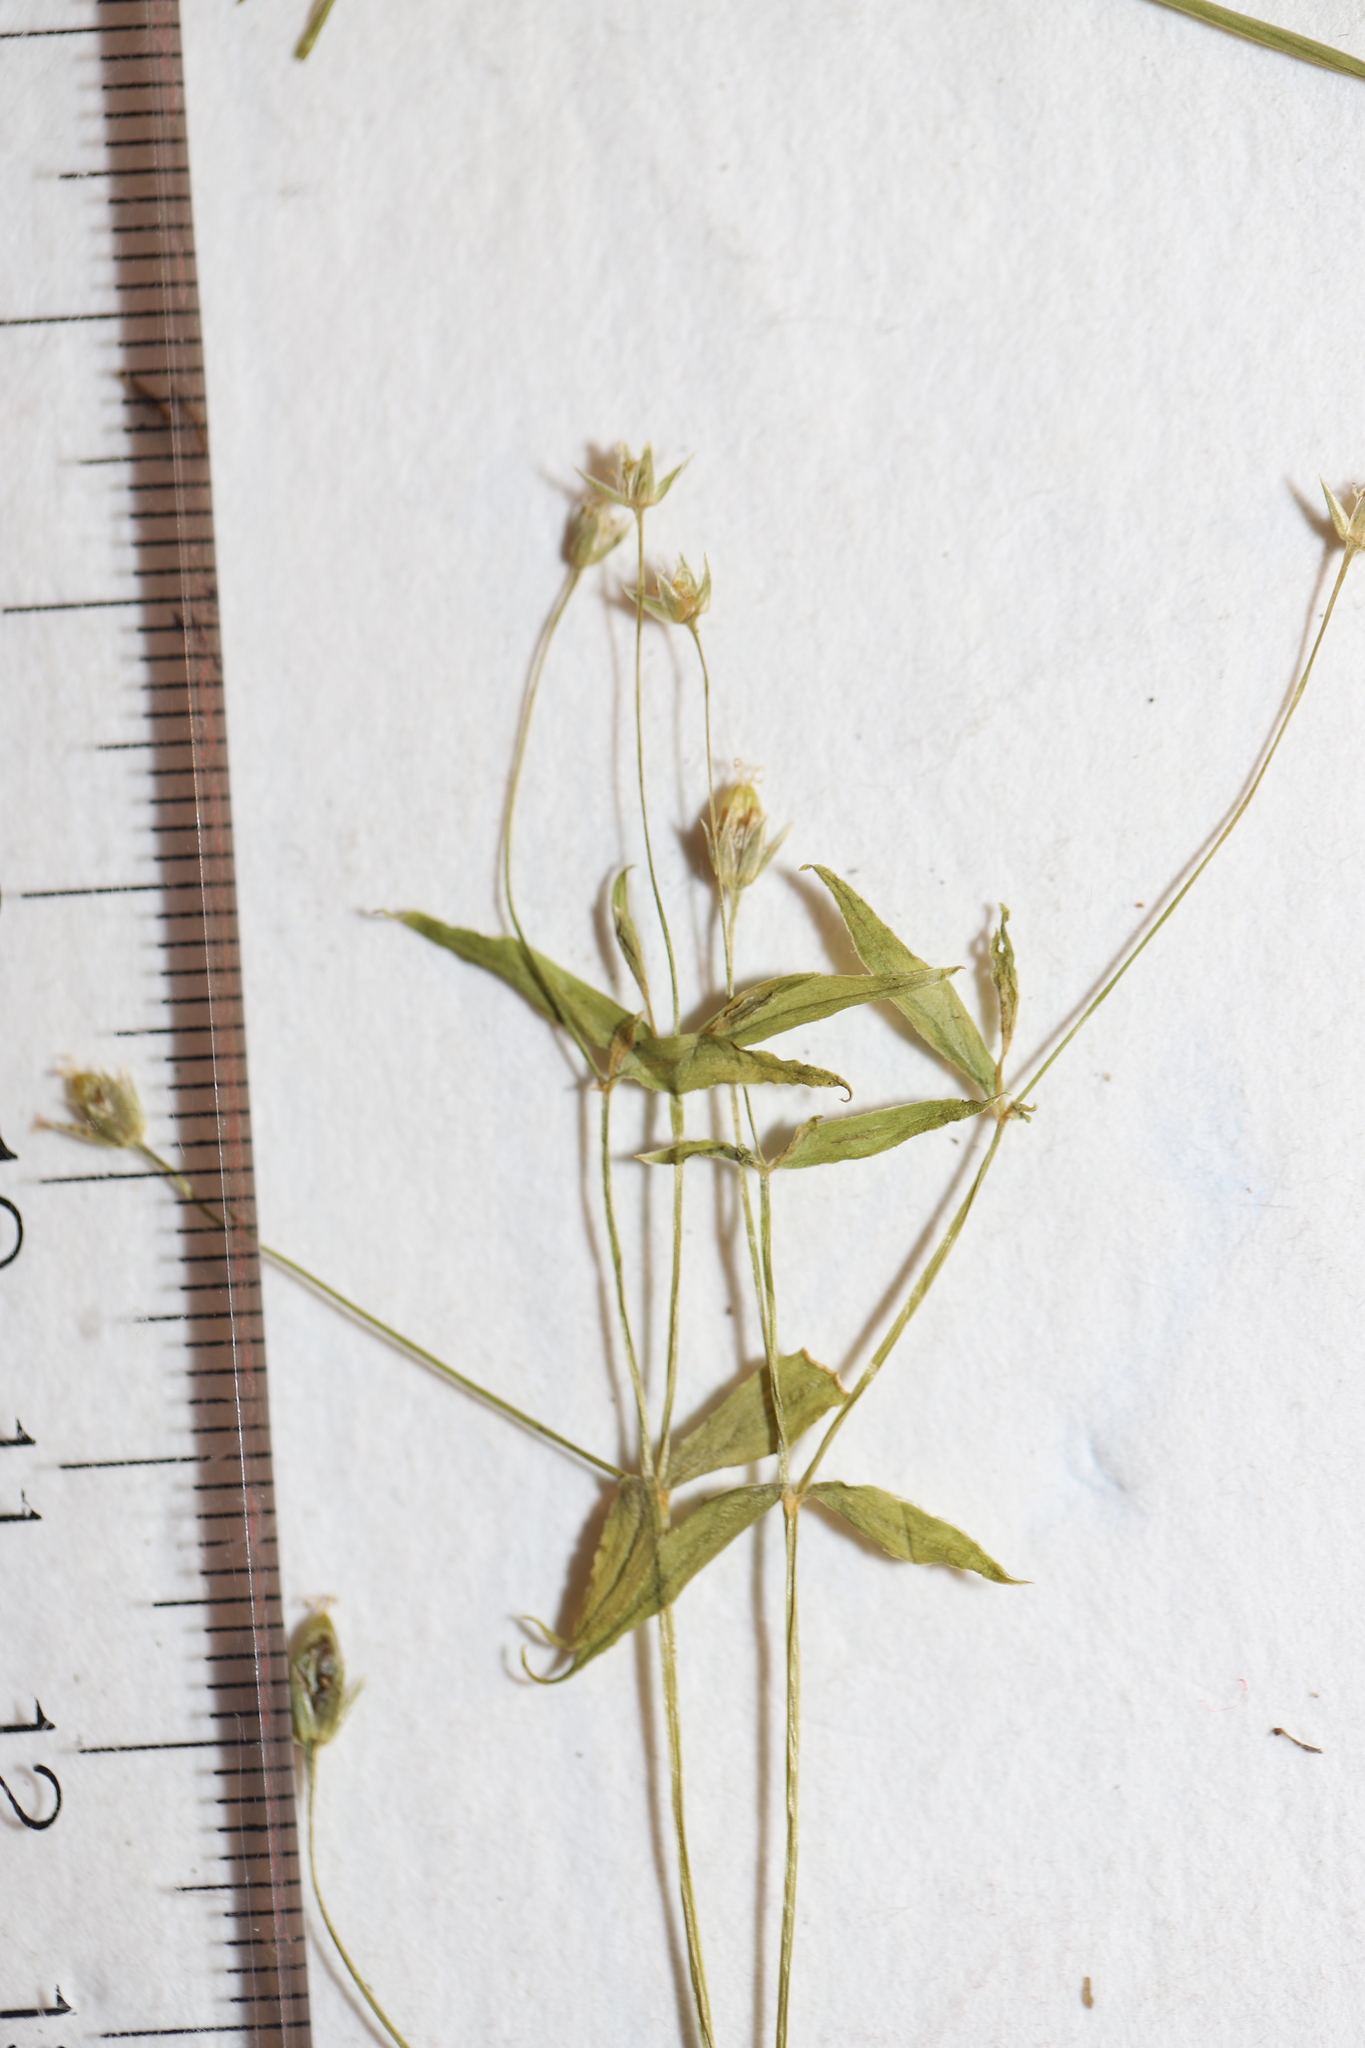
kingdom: Plantae
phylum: Tracheophyta
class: Magnoliopsida
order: Caryophyllales
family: Caryophyllaceae
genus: Stellaria
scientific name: Stellaria borealis
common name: Boreal starwort
